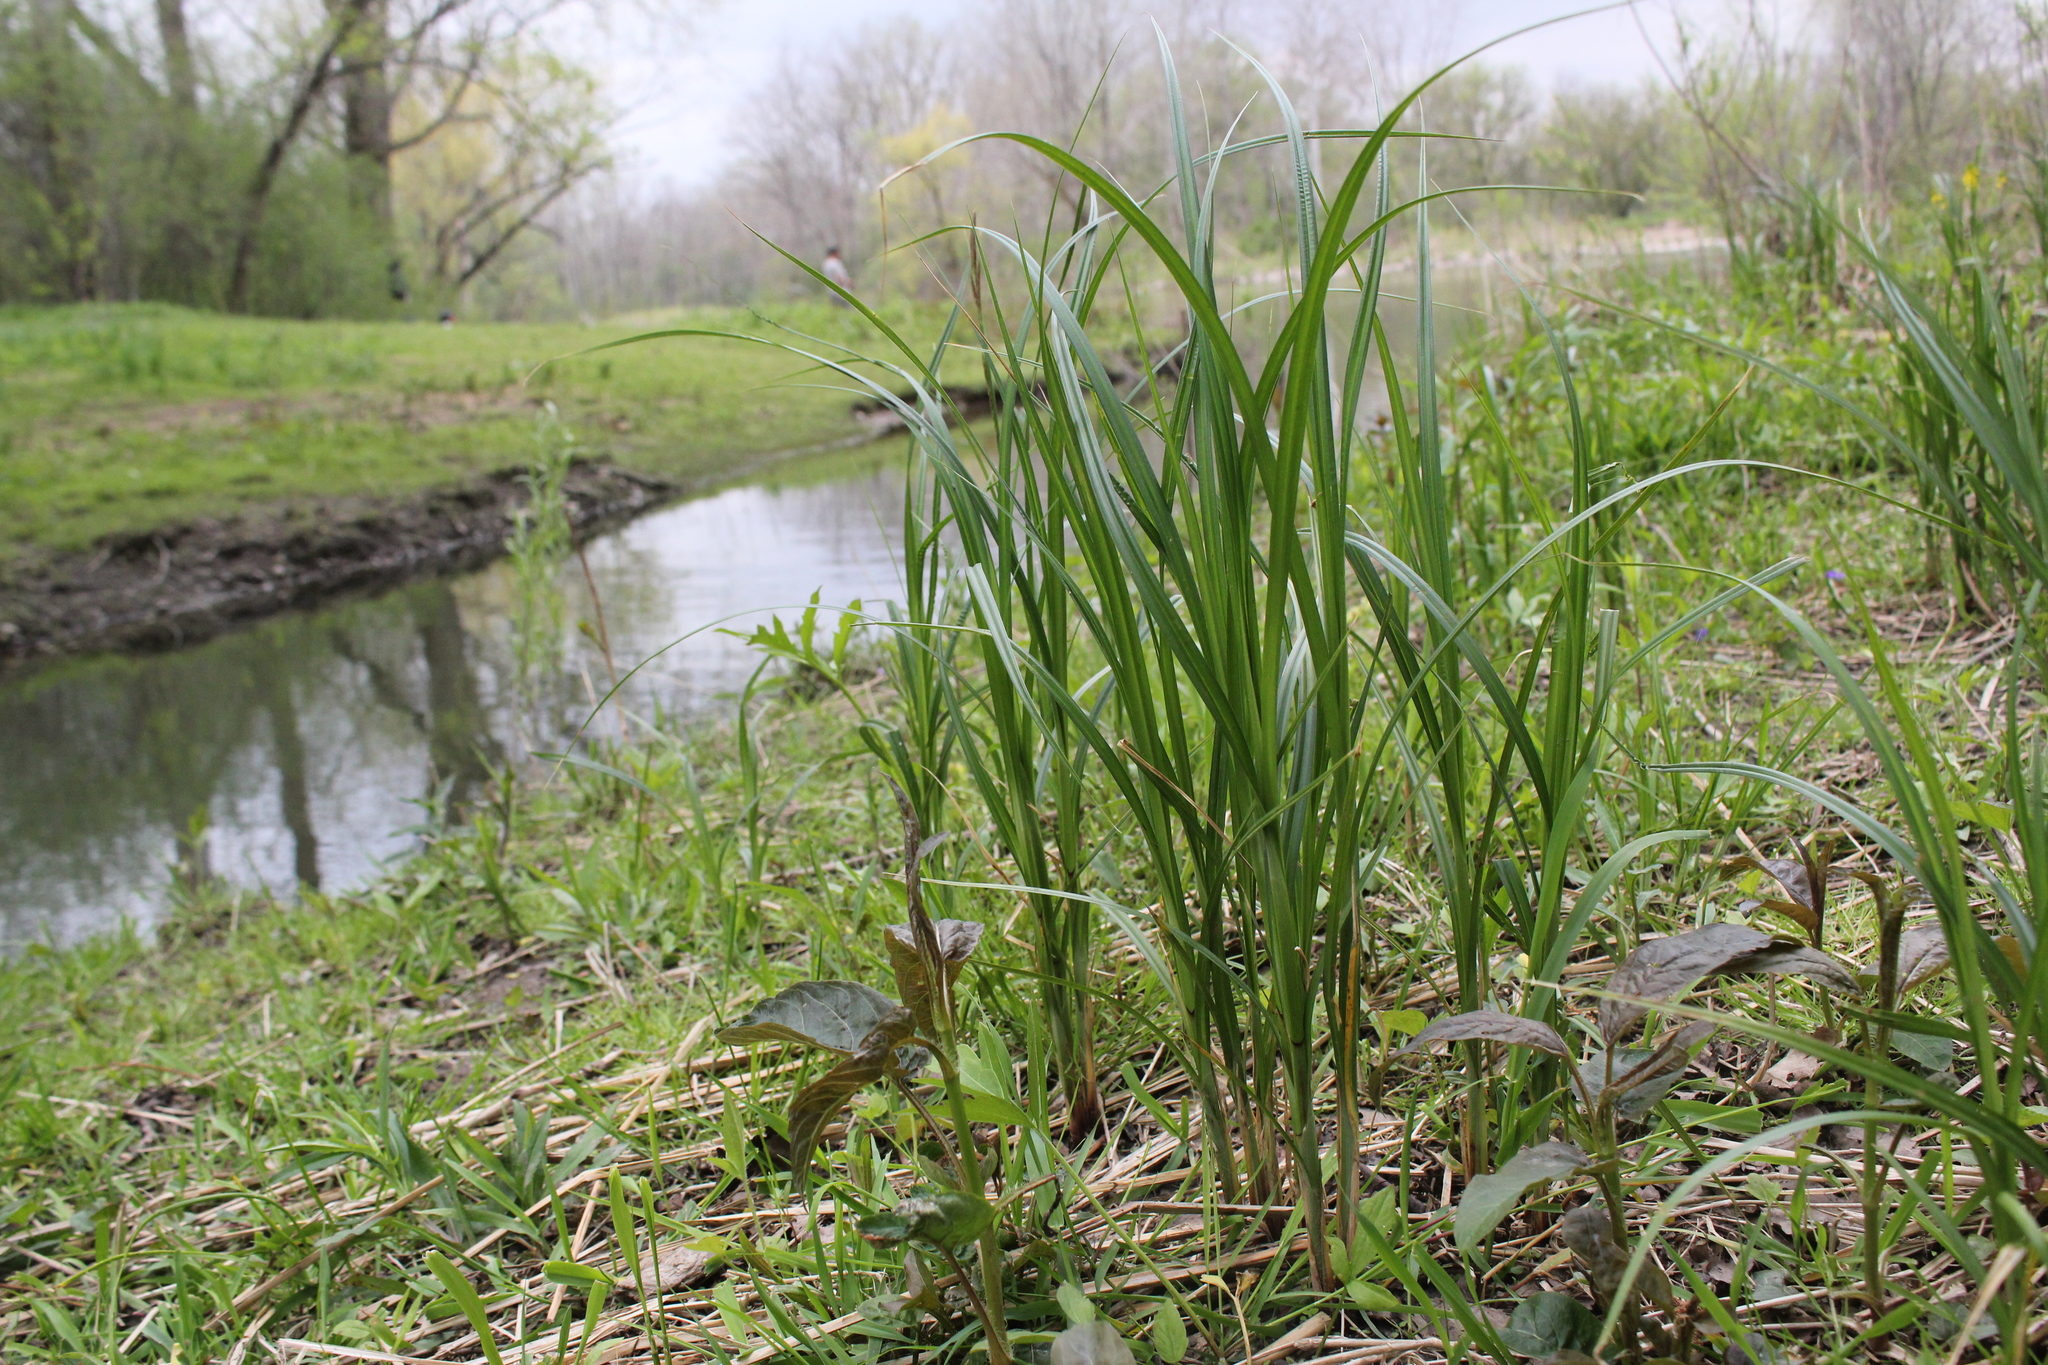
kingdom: Plantae
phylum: Tracheophyta
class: Liliopsida
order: Poales
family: Cyperaceae
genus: Carex
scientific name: Carex trichocarpa
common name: Hairy-fruited lake sedge
